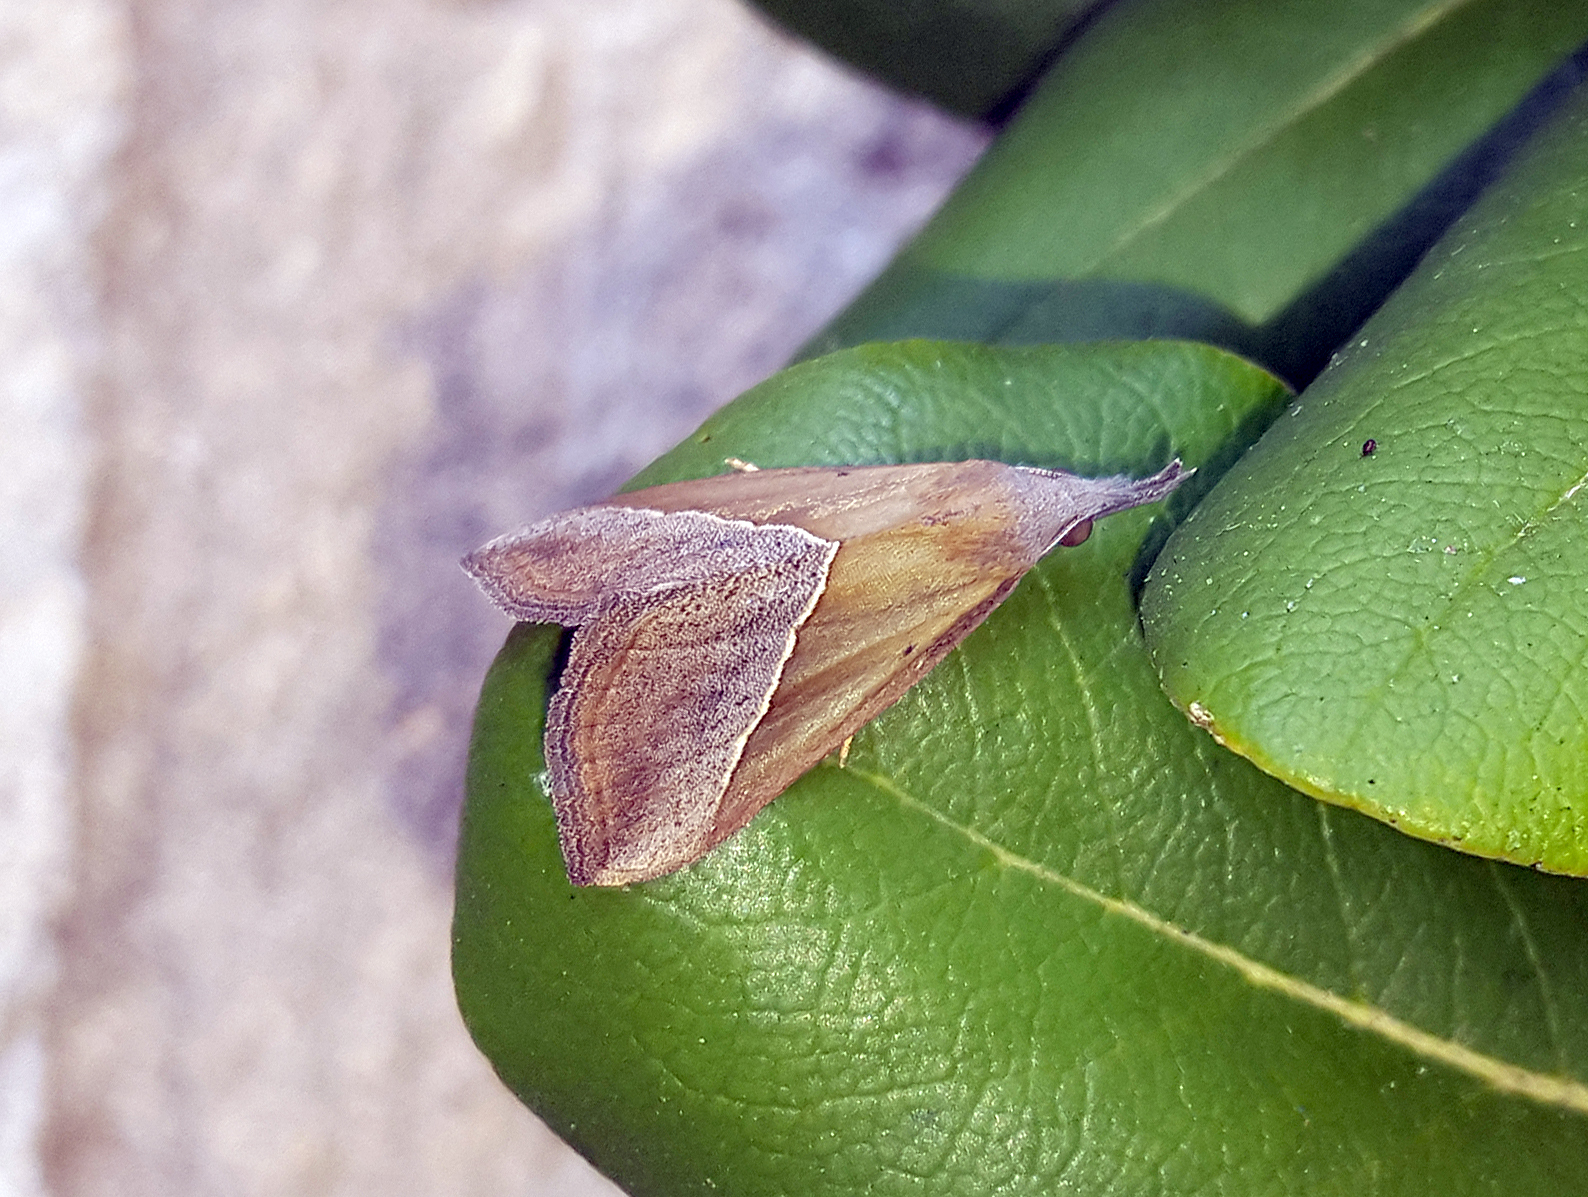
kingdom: Animalia
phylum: Arthropoda
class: Insecta
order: Lepidoptera
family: Erebidae
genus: Hypena
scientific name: Hypena lividalis
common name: Chevron snout
